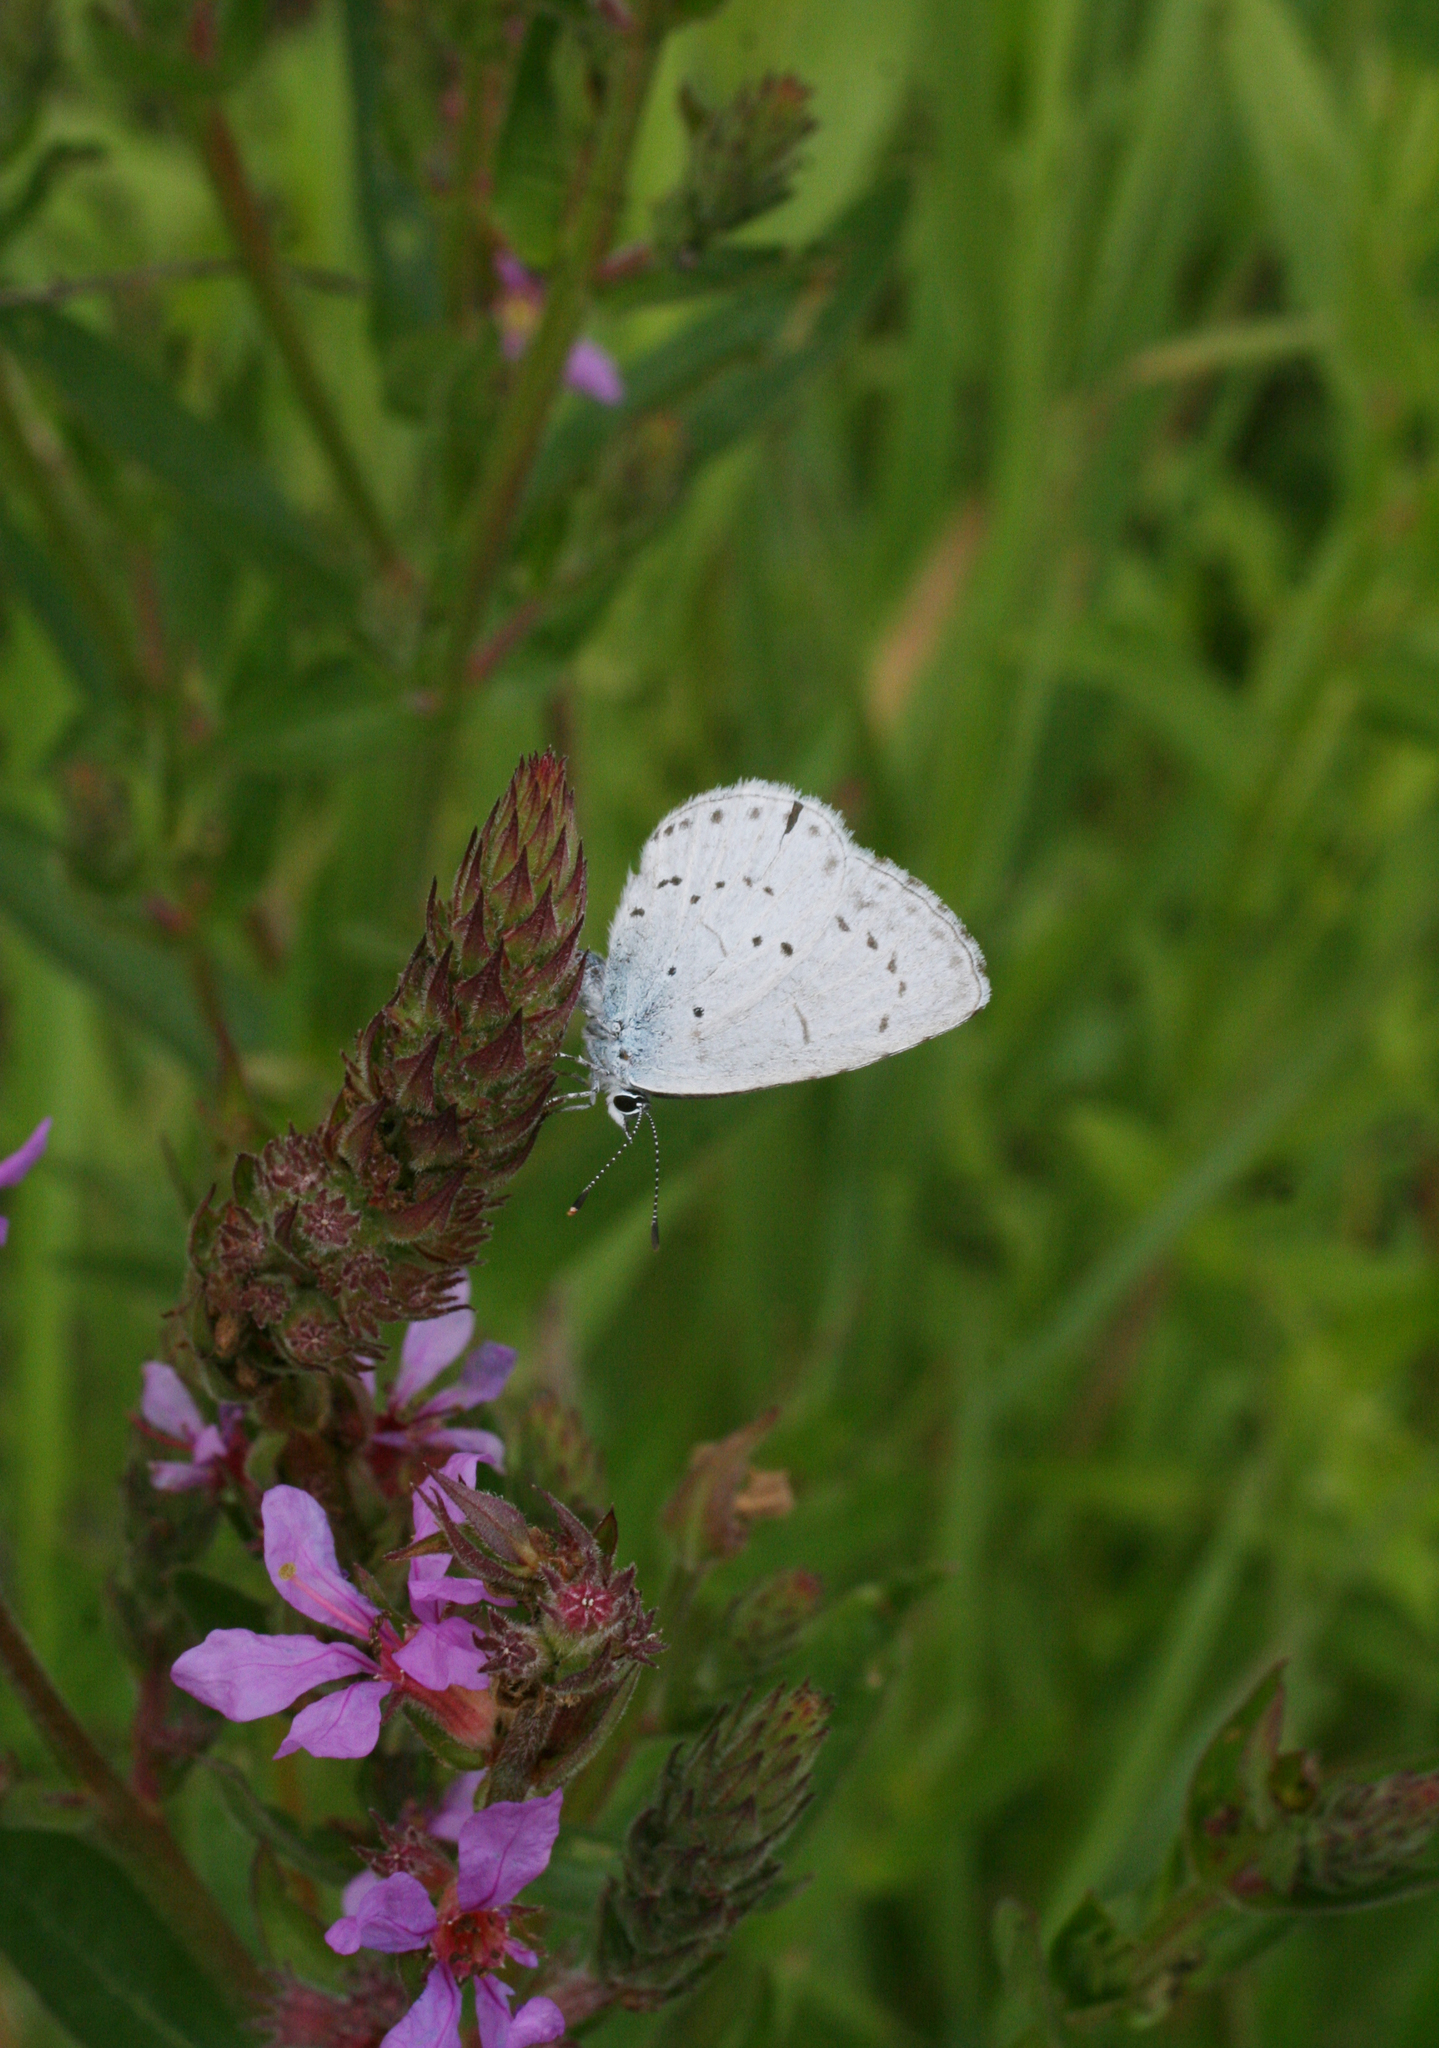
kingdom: Animalia
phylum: Arthropoda
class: Insecta
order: Lepidoptera
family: Lycaenidae
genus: Celastrina
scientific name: Celastrina argiolus
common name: Holly blue
